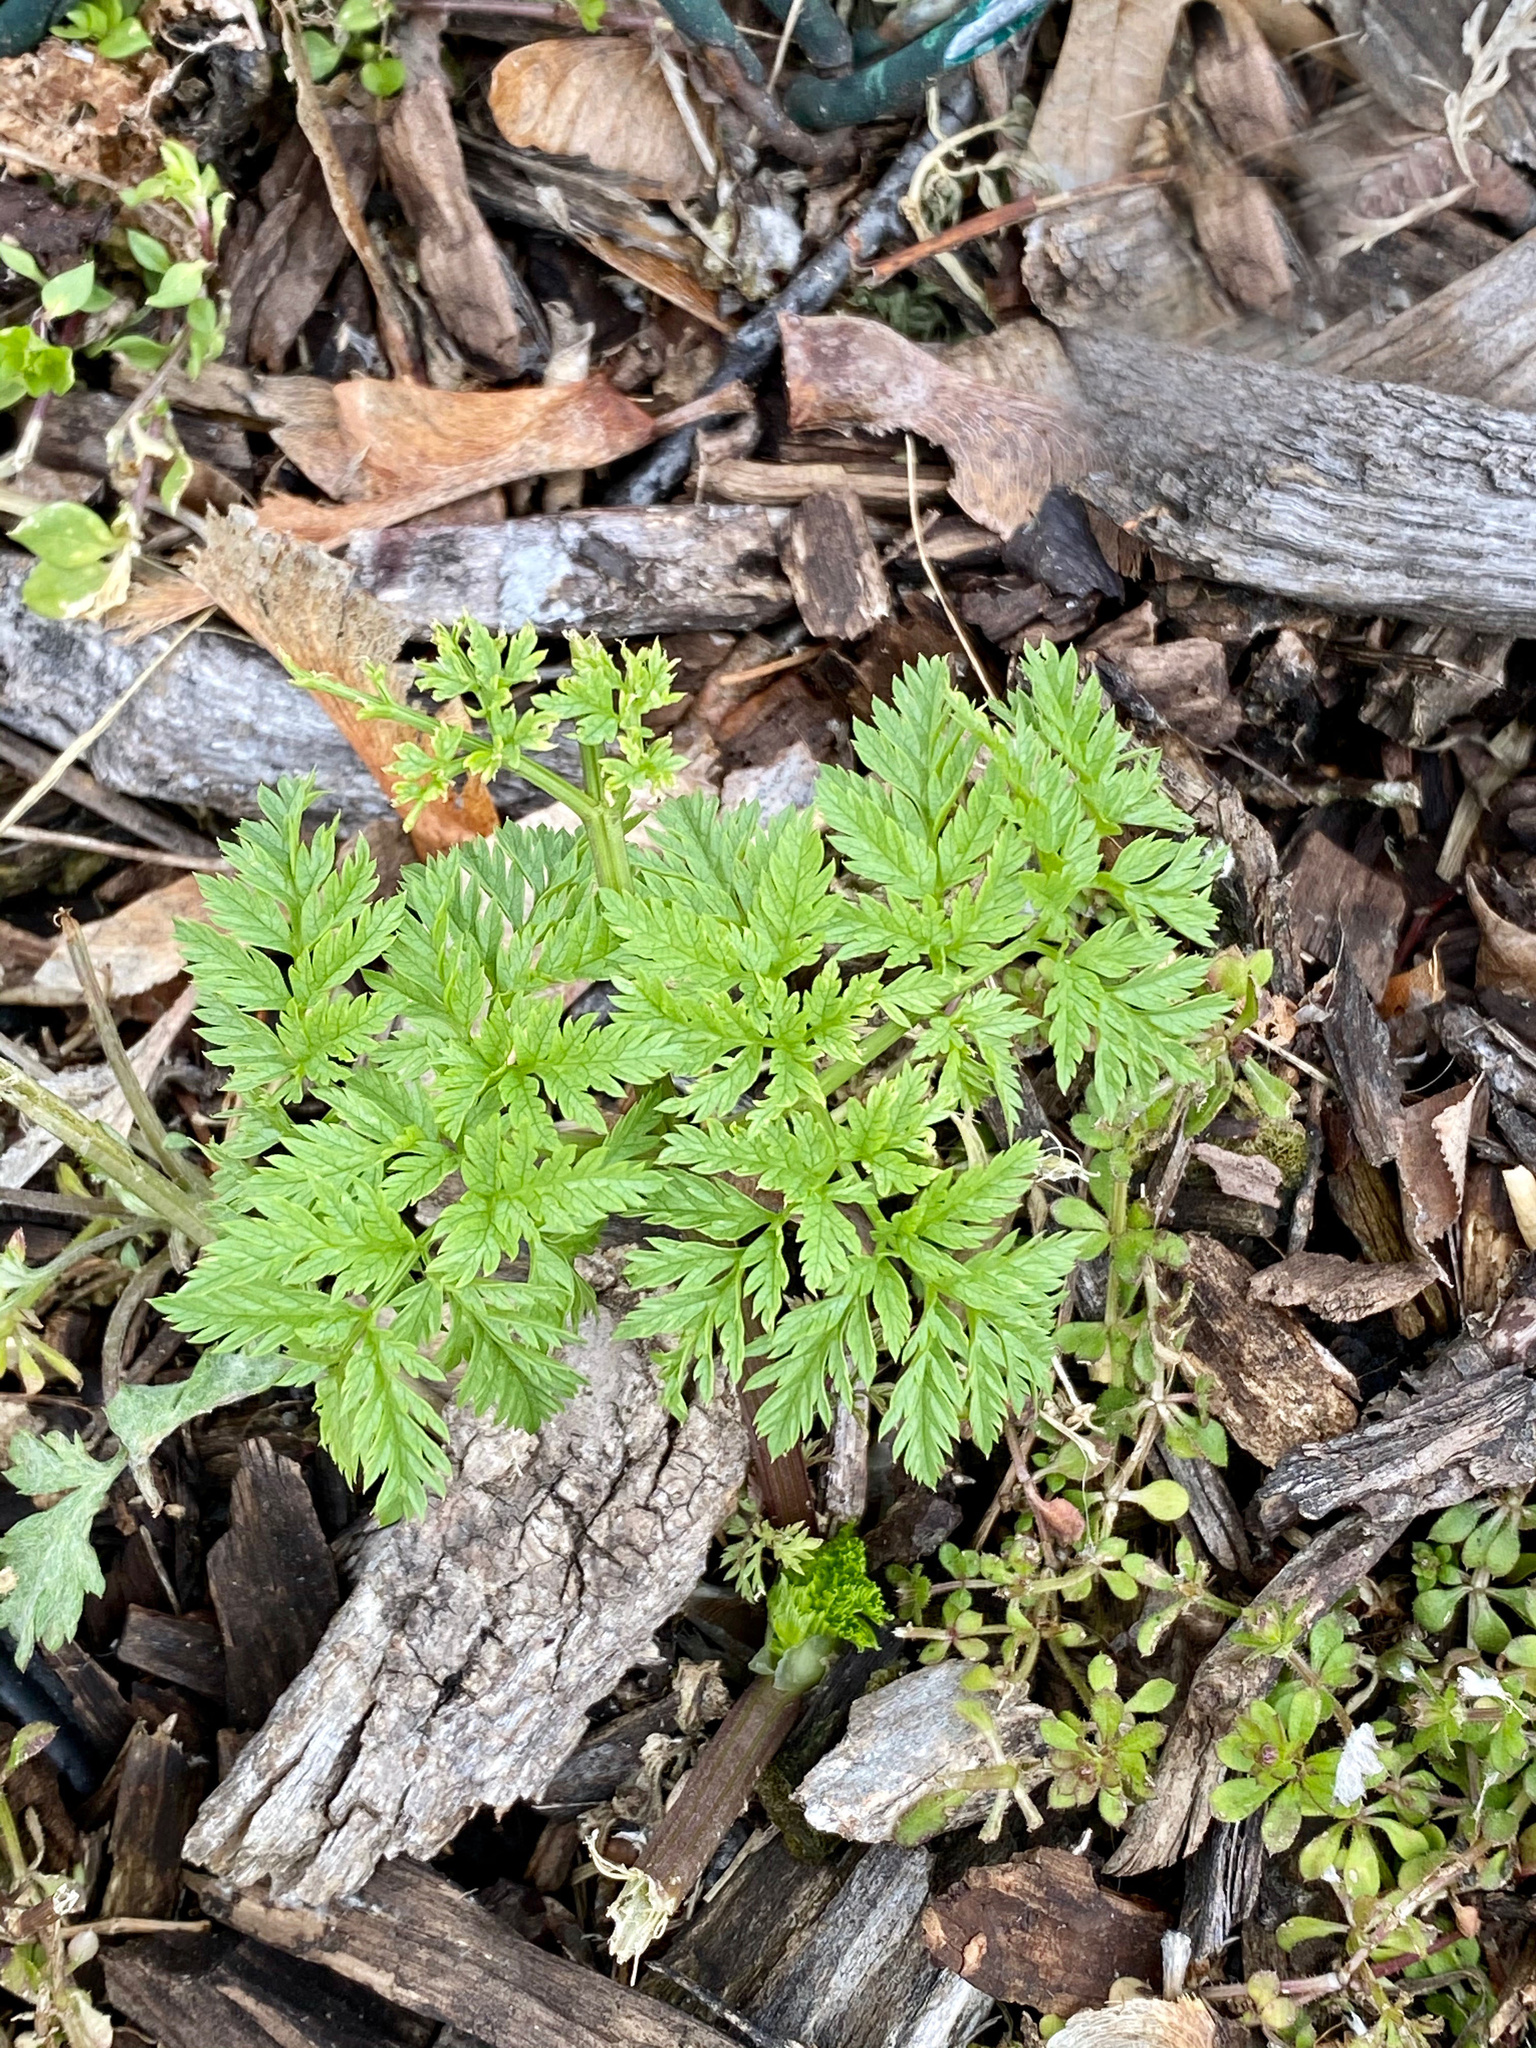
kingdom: Plantae
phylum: Tracheophyta
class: Magnoliopsida
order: Apiales
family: Apiaceae
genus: Conium
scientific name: Conium maculatum
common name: Hemlock
